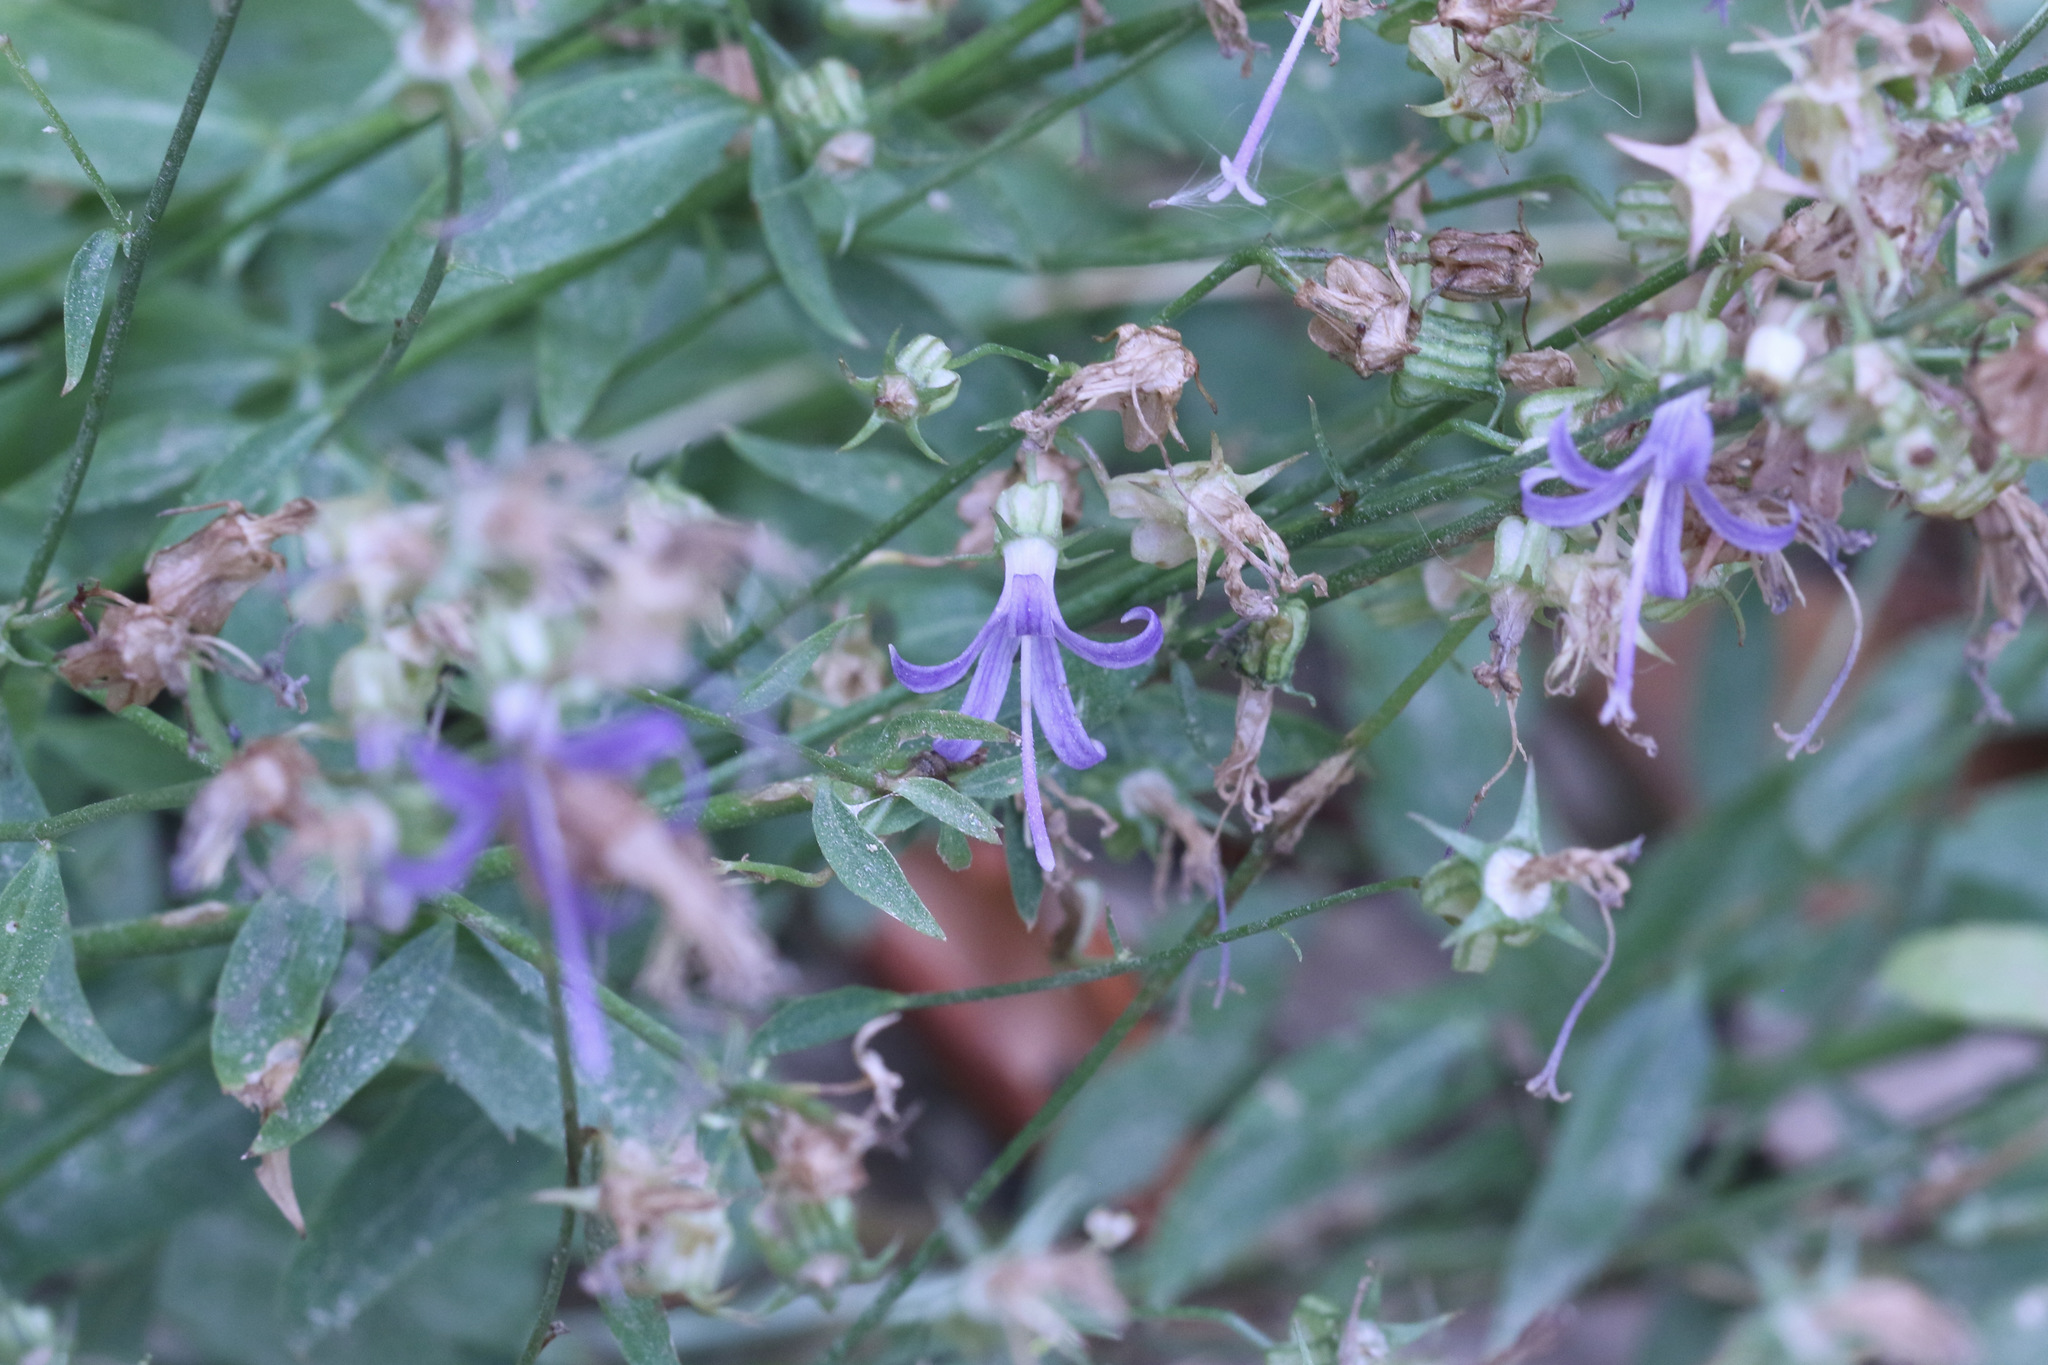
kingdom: Plantae
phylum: Tracheophyta
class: Magnoliopsida
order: Asterales
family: Campanulaceae
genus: Smithiastrum
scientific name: Smithiastrum prenanthoides
